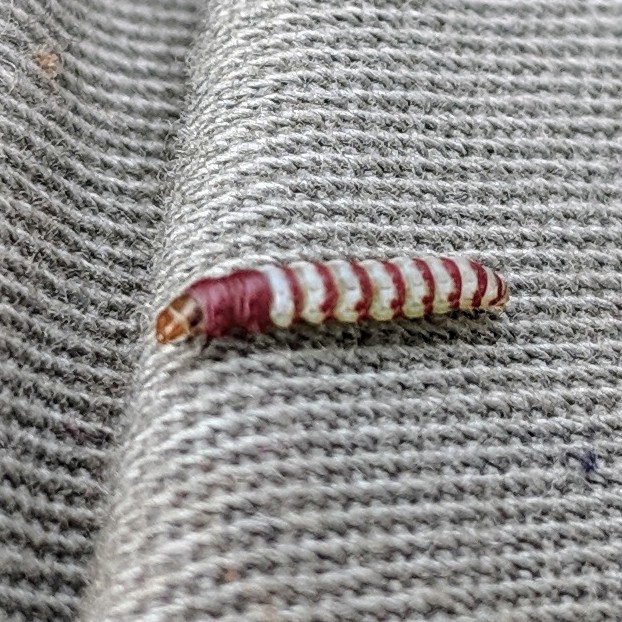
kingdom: Animalia
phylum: Arthropoda
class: Insecta
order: Lepidoptera
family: Gelechiidae
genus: Arogalea
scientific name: Arogalea cristifasciella
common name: White stripe-backed moth
